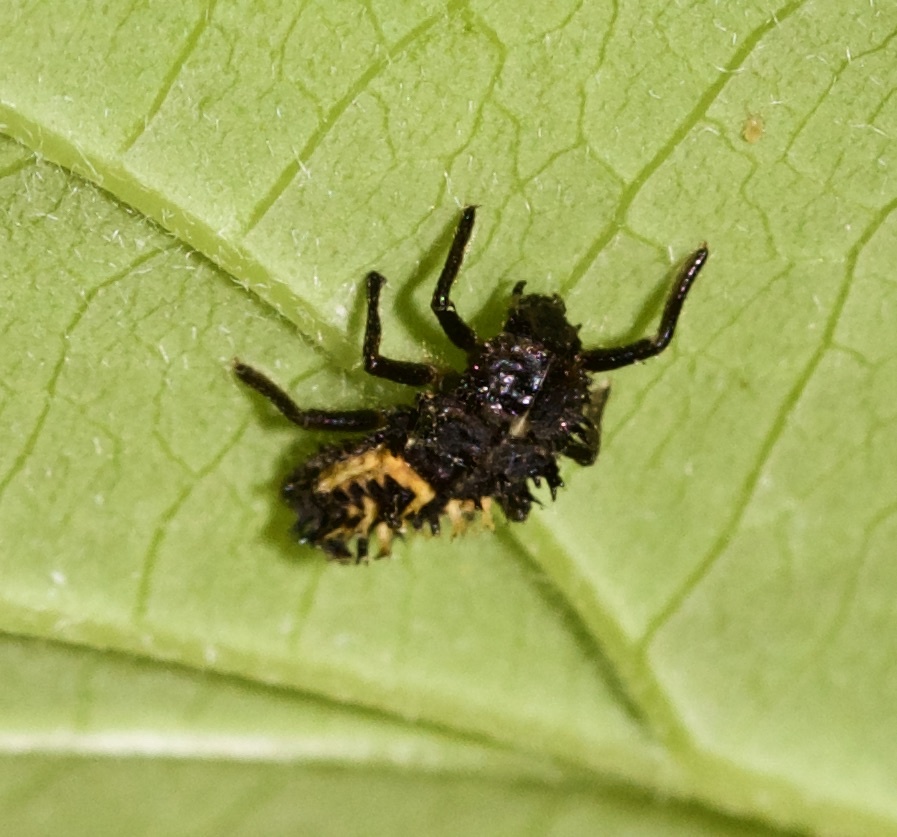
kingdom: Animalia
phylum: Arthropoda
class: Insecta
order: Coleoptera
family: Coccinellidae
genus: Harmonia
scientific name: Harmonia axyridis
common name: Harlequin ladybird
